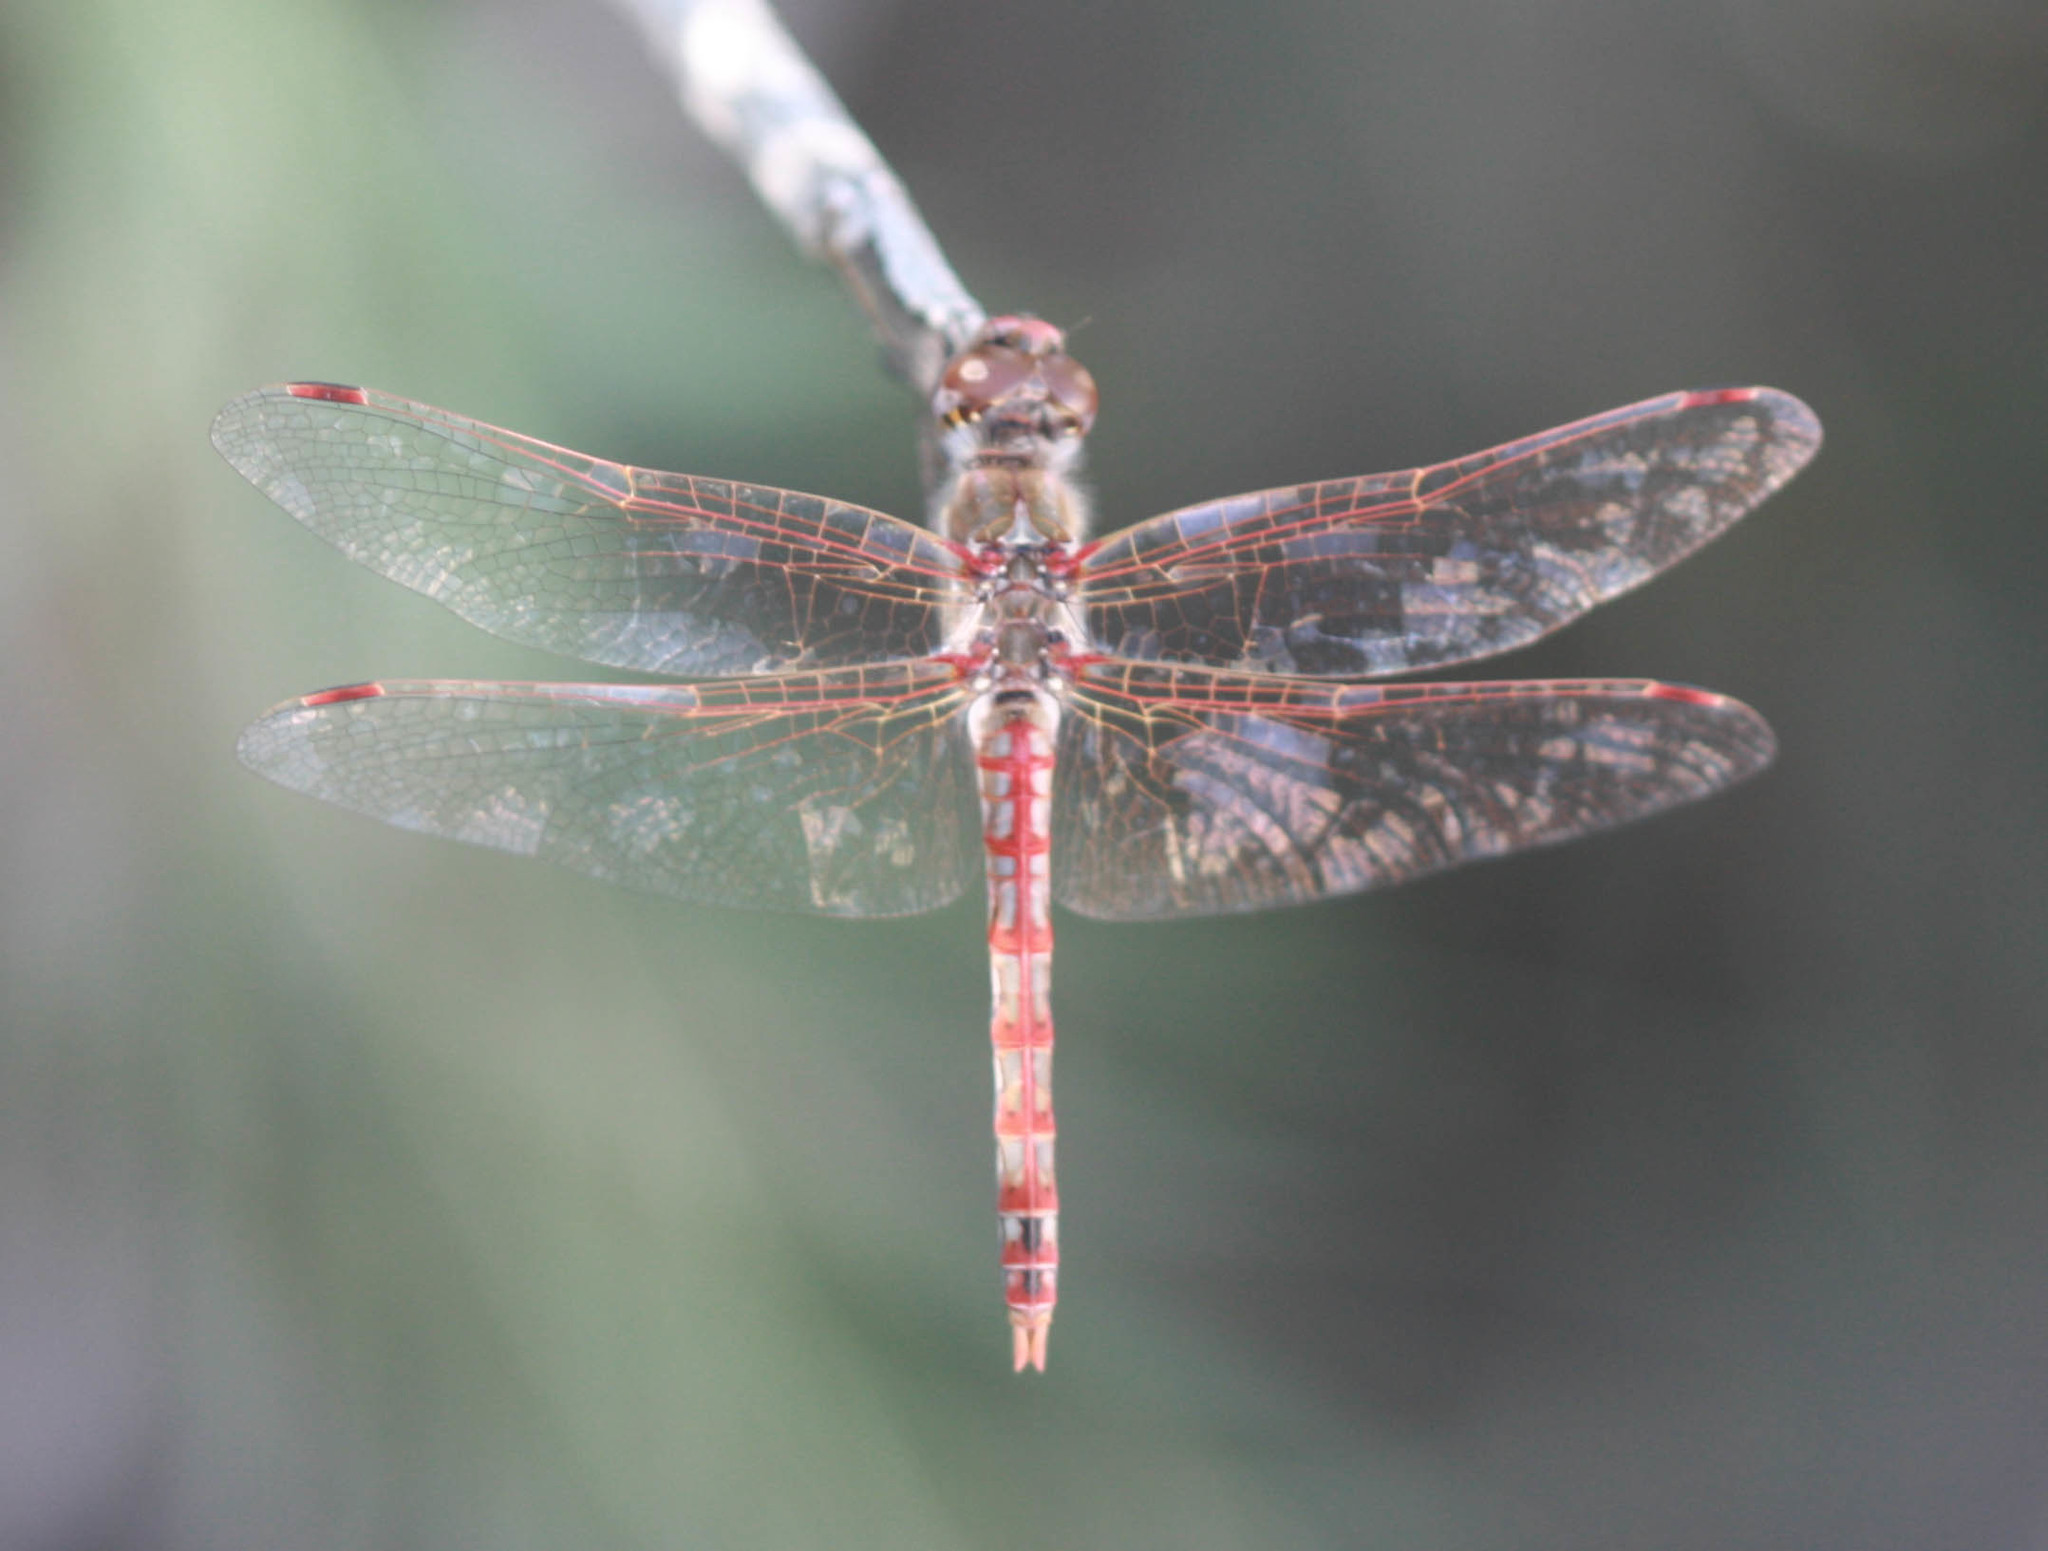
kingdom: Animalia
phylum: Arthropoda
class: Insecta
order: Odonata
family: Libellulidae
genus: Sympetrum
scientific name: Sympetrum corruptum
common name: Variegated meadowhawk
